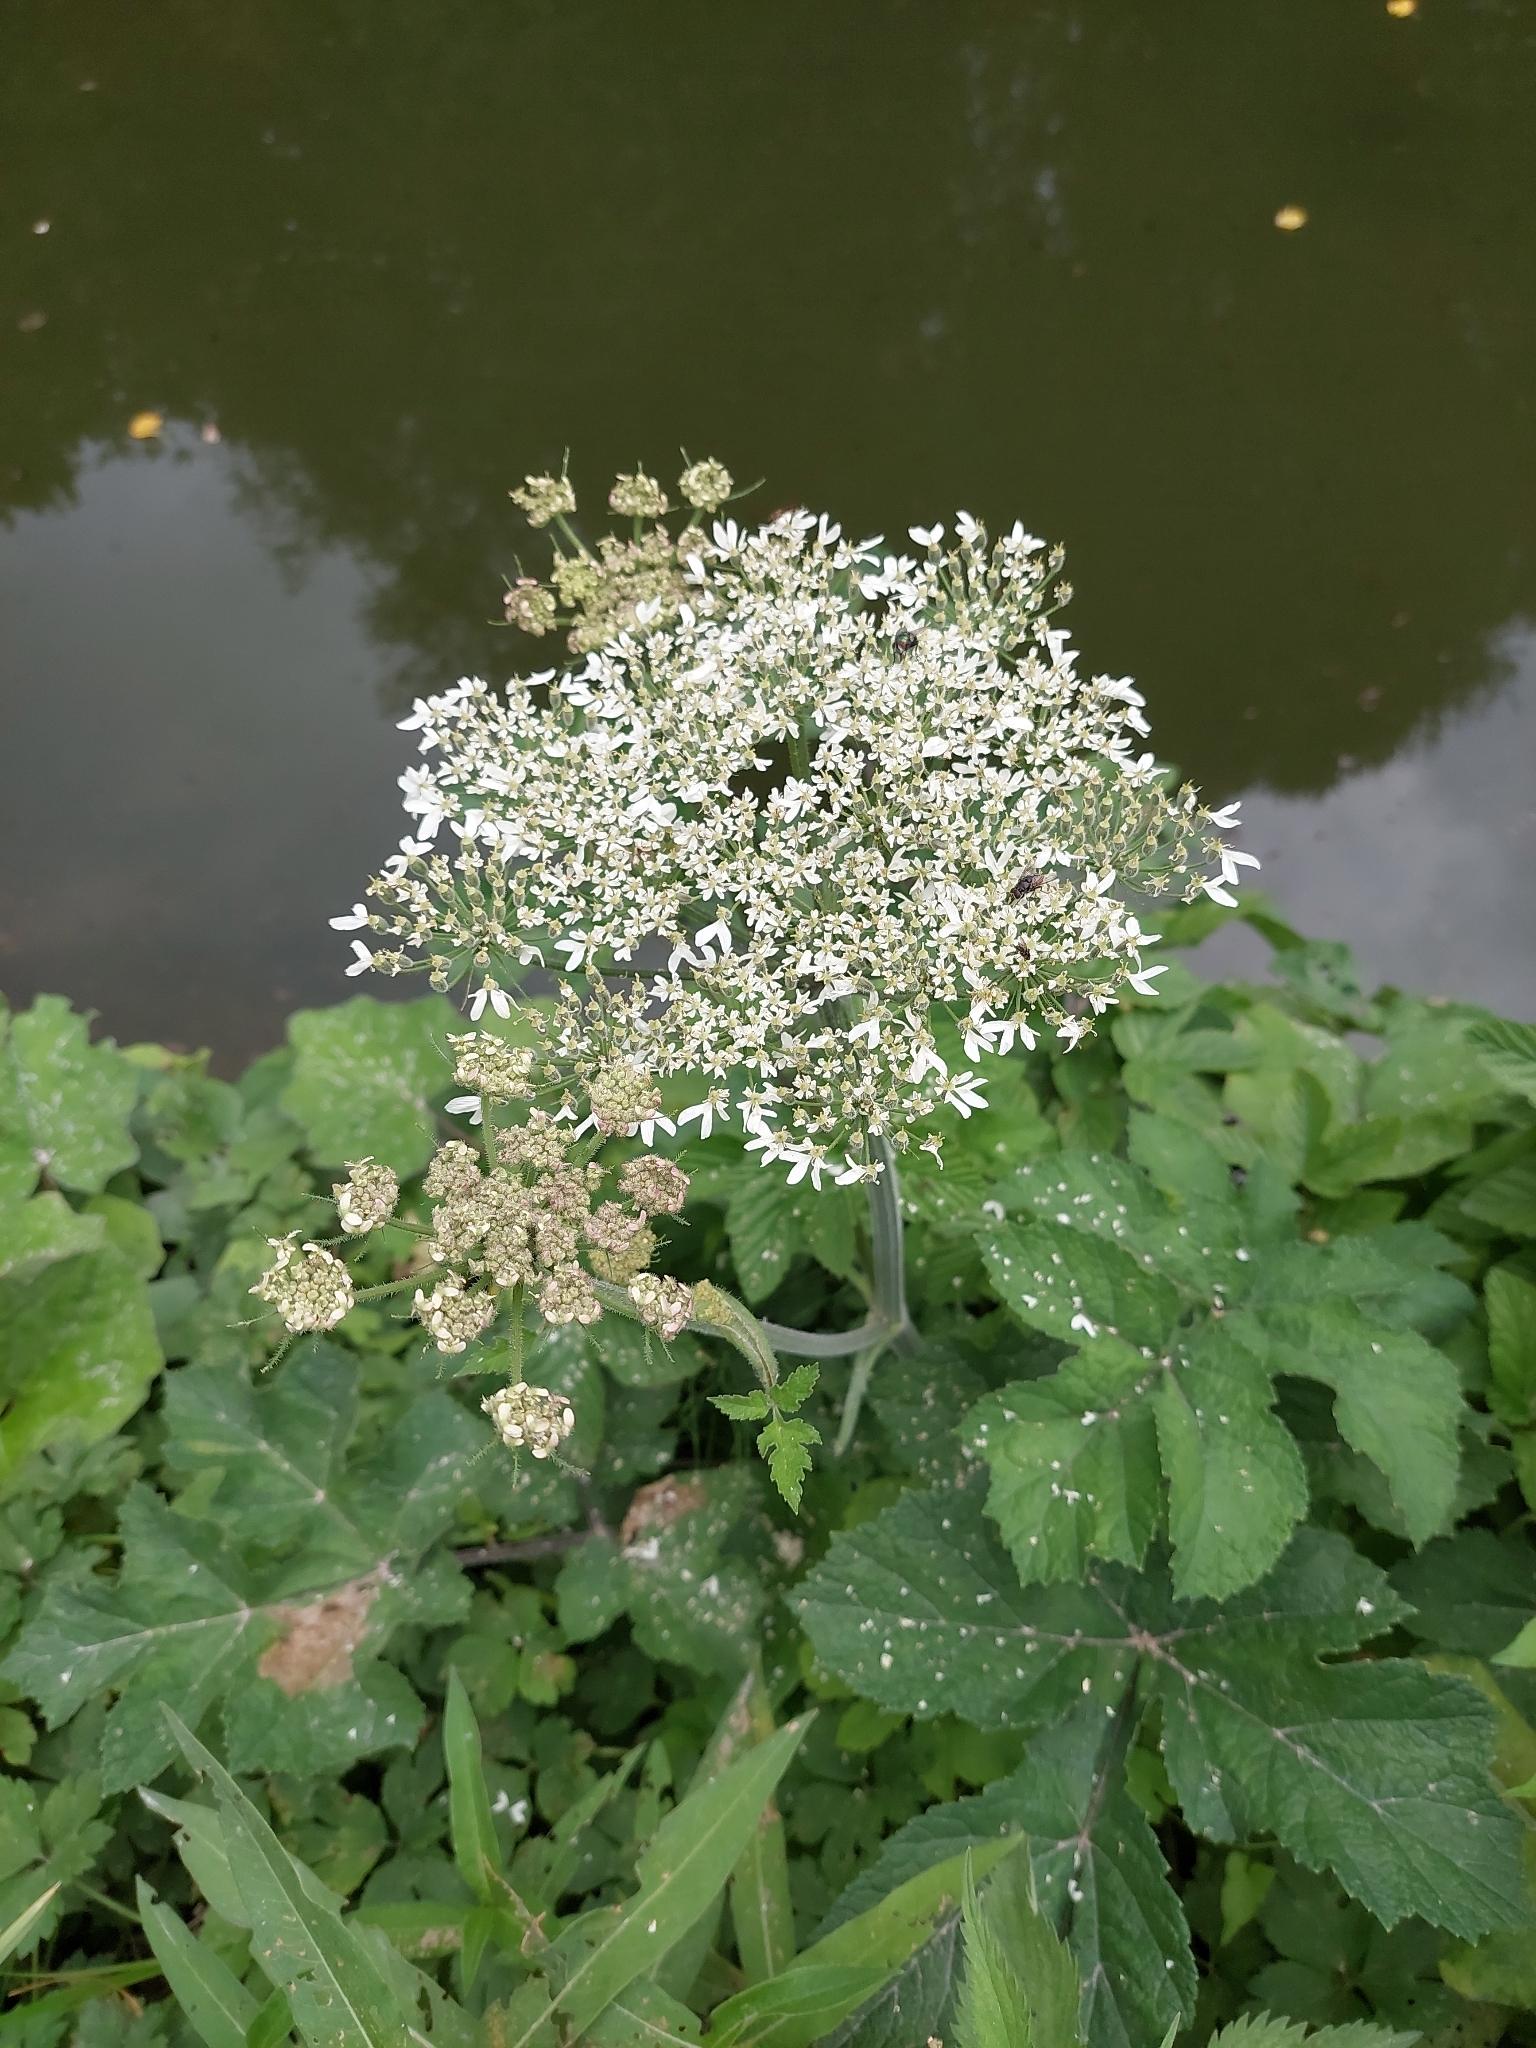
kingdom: Plantae
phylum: Tracheophyta
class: Magnoliopsida
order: Apiales
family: Apiaceae
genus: Heracleum
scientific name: Heracleum sphondylium
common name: Hogweed
